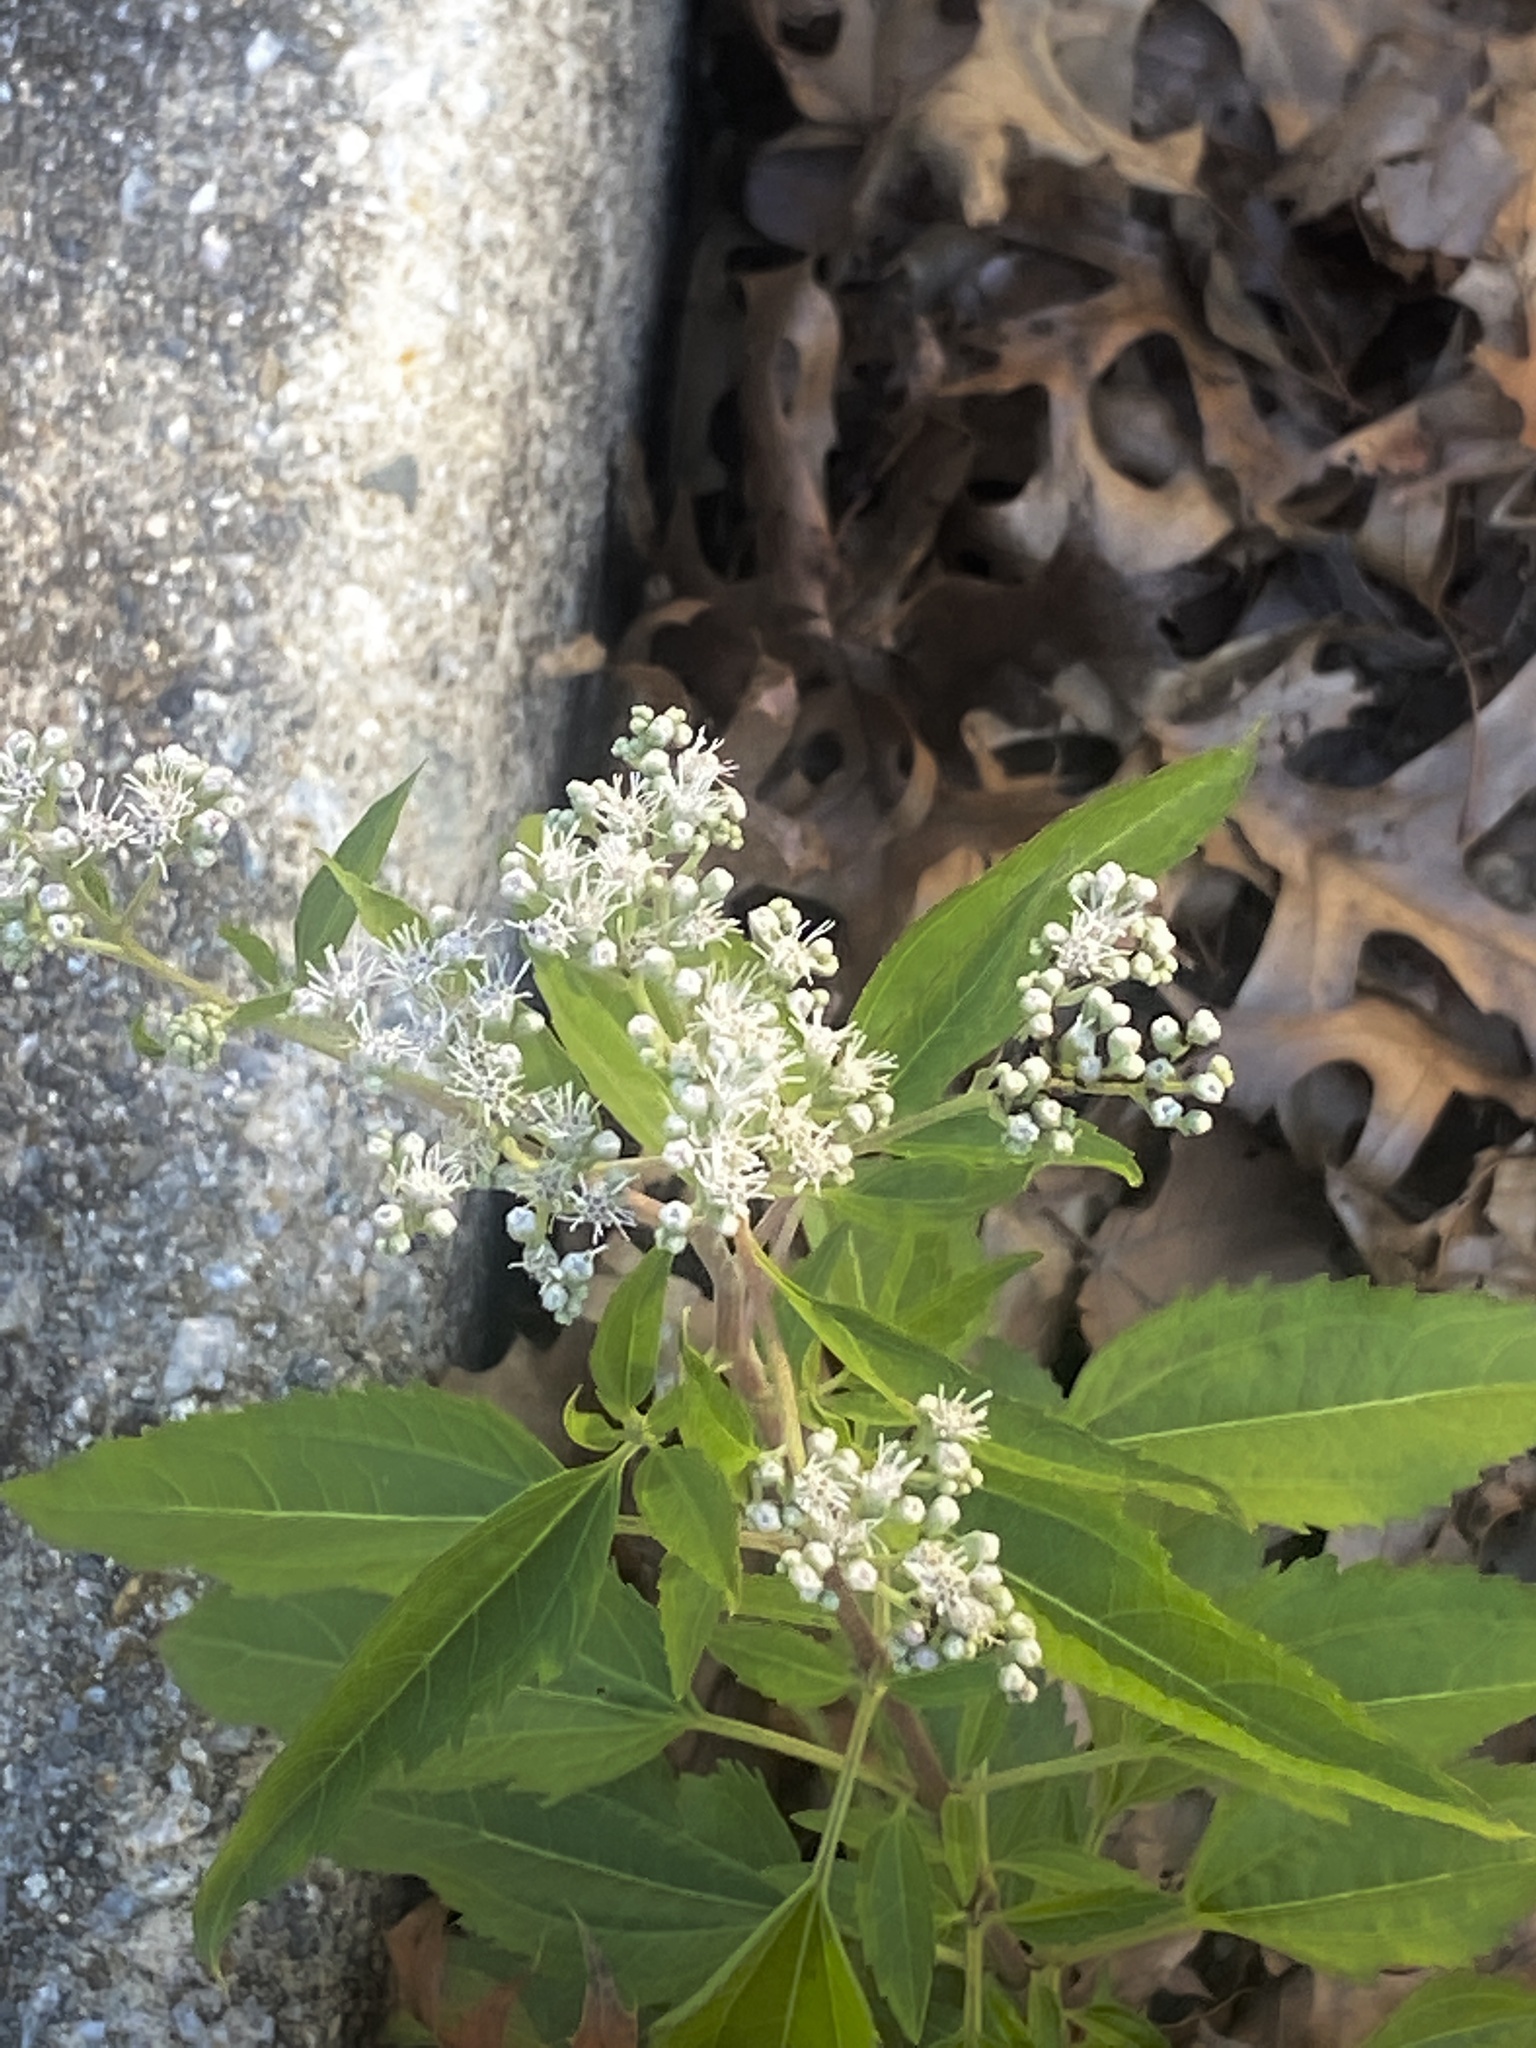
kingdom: Plantae
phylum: Tracheophyta
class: Magnoliopsida
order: Asterales
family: Asteraceae
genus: Eupatorium
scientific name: Eupatorium serotinum
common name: Late boneset
